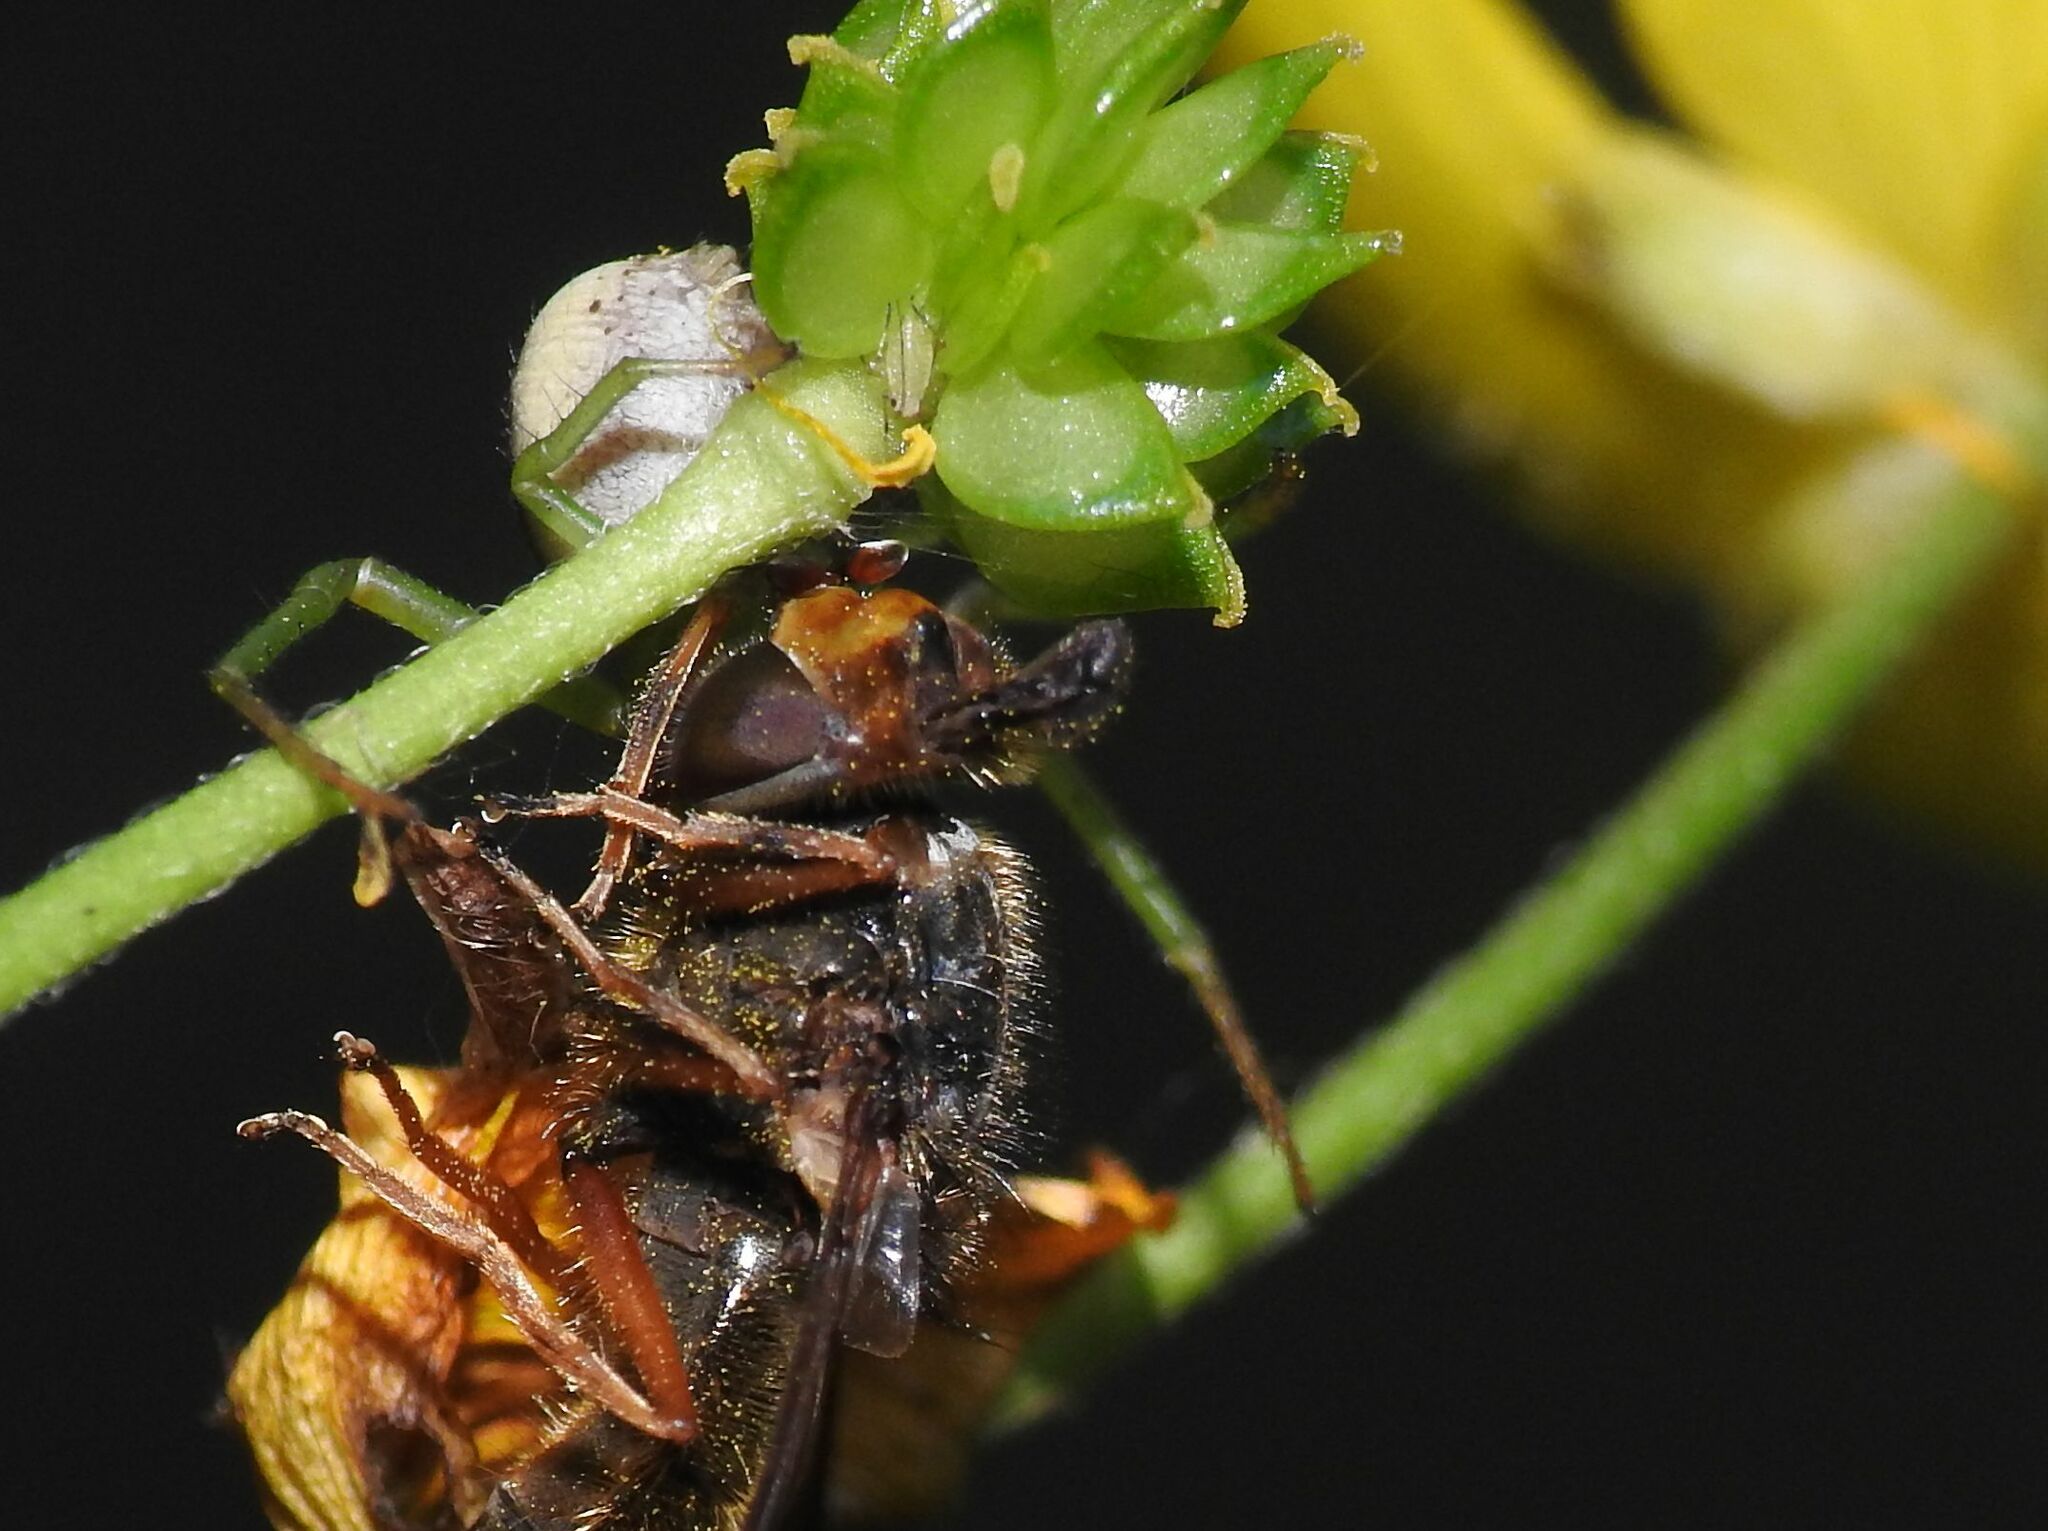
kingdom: Animalia
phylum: Arthropoda
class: Arachnida
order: Araneae
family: Thomisidae
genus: Diaea
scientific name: Diaea dorsata
